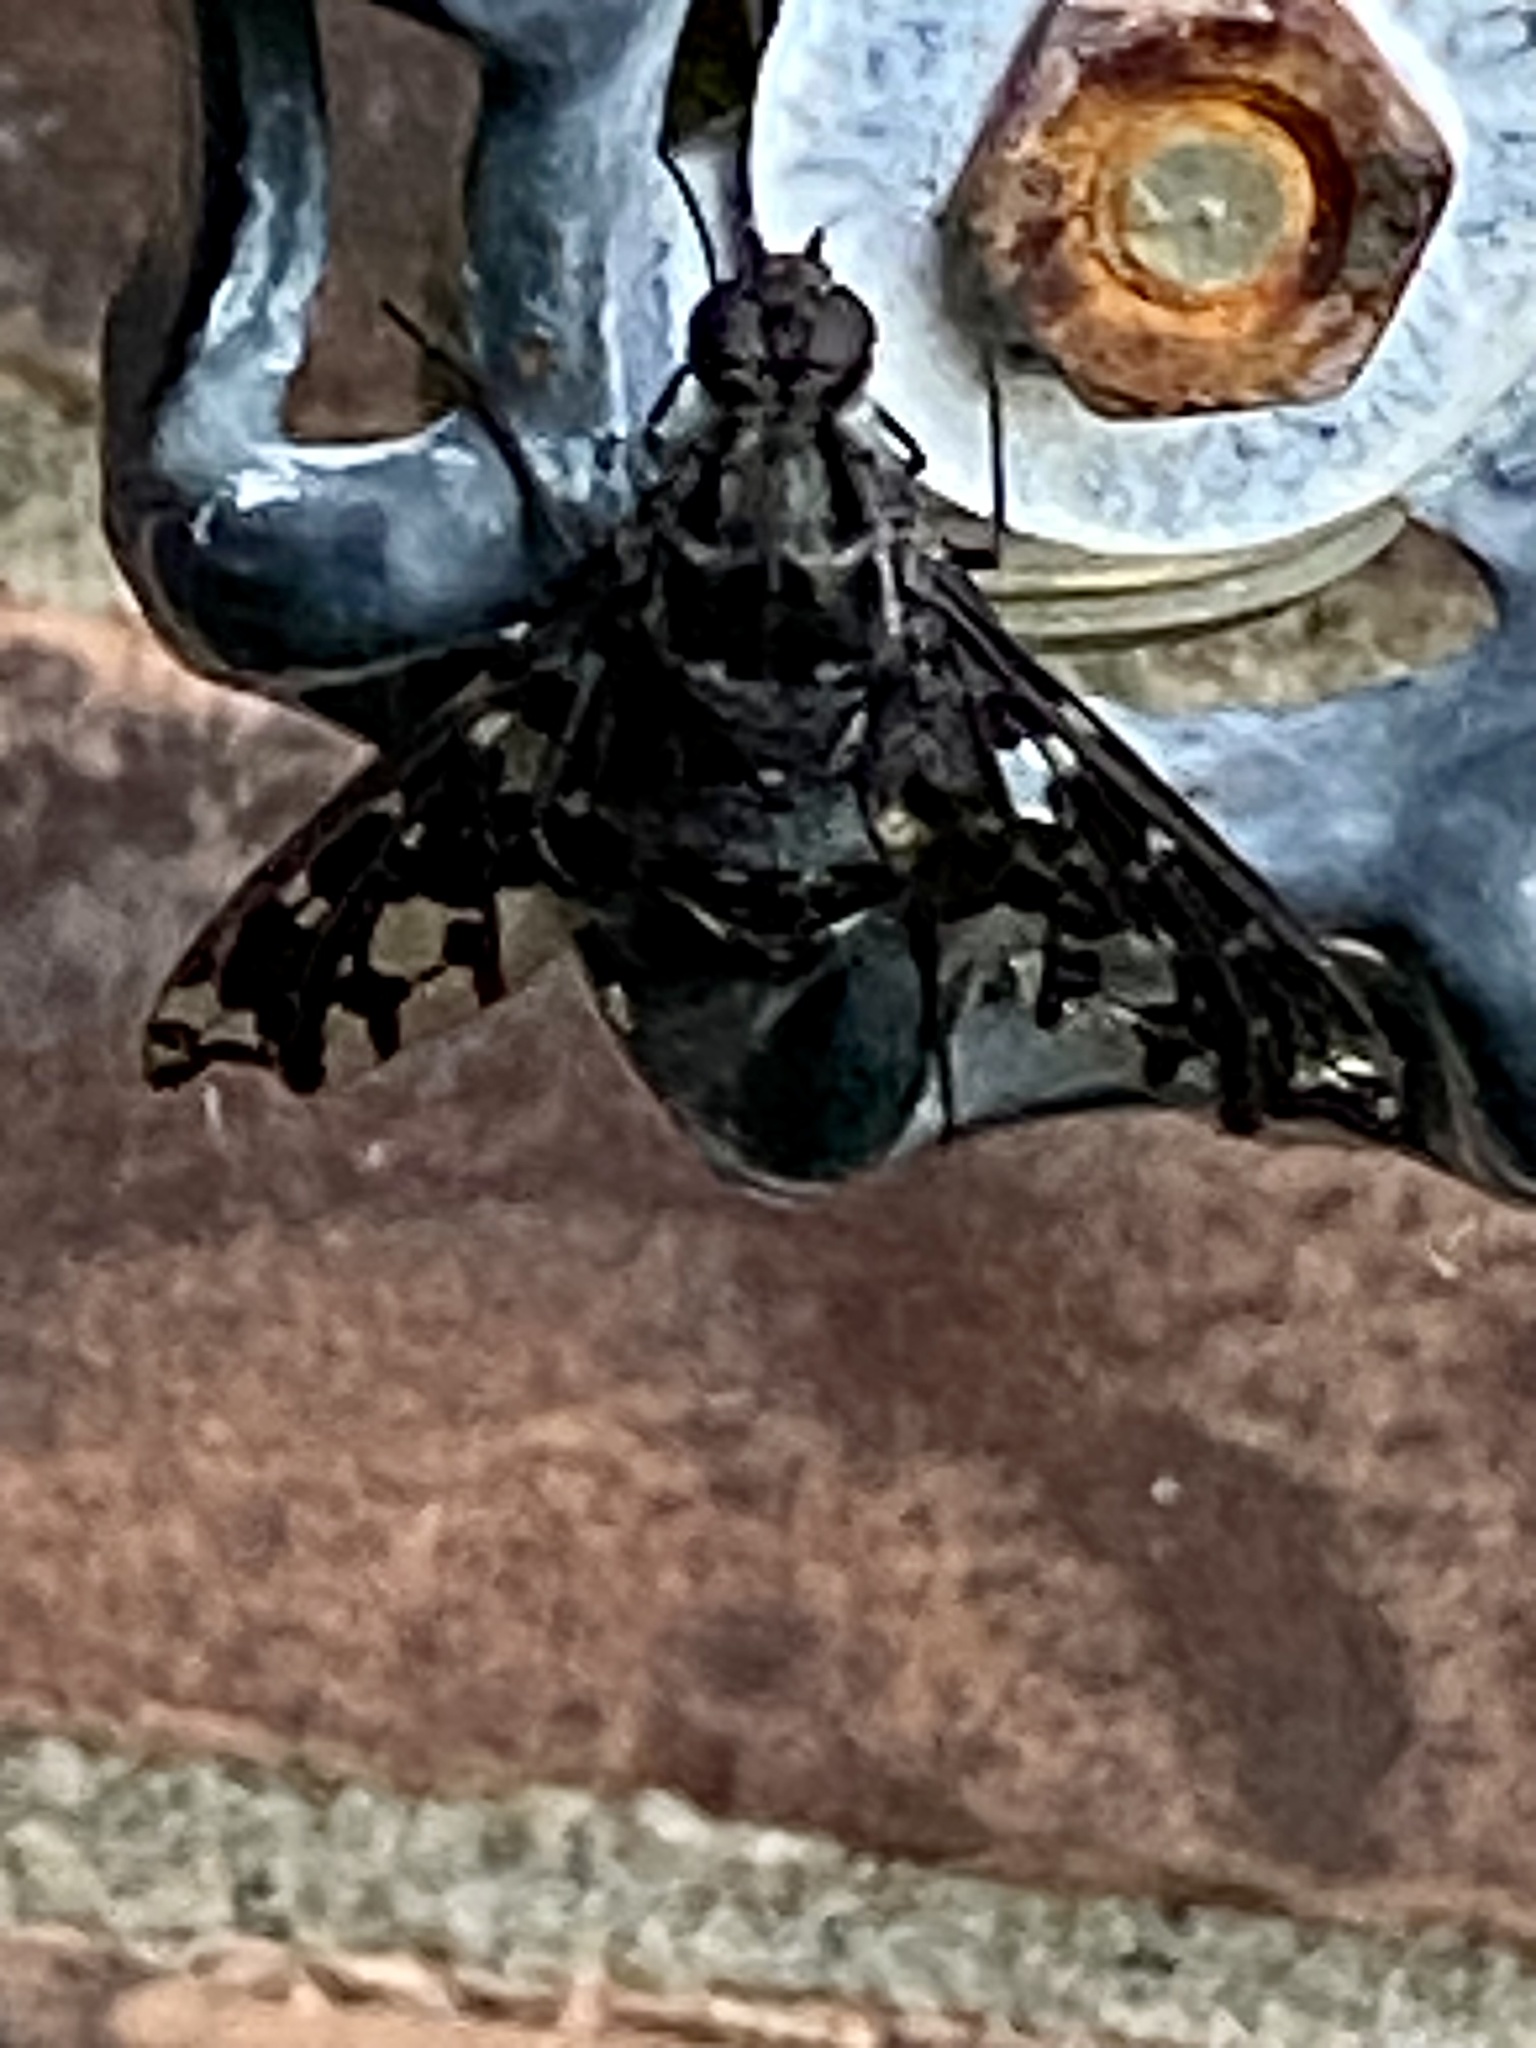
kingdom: Animalia
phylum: Arthropoda
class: Insecta
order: Diptera
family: Bombyliidae
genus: Xenox
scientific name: Xenox tigrinus
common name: Tiger bee fly
